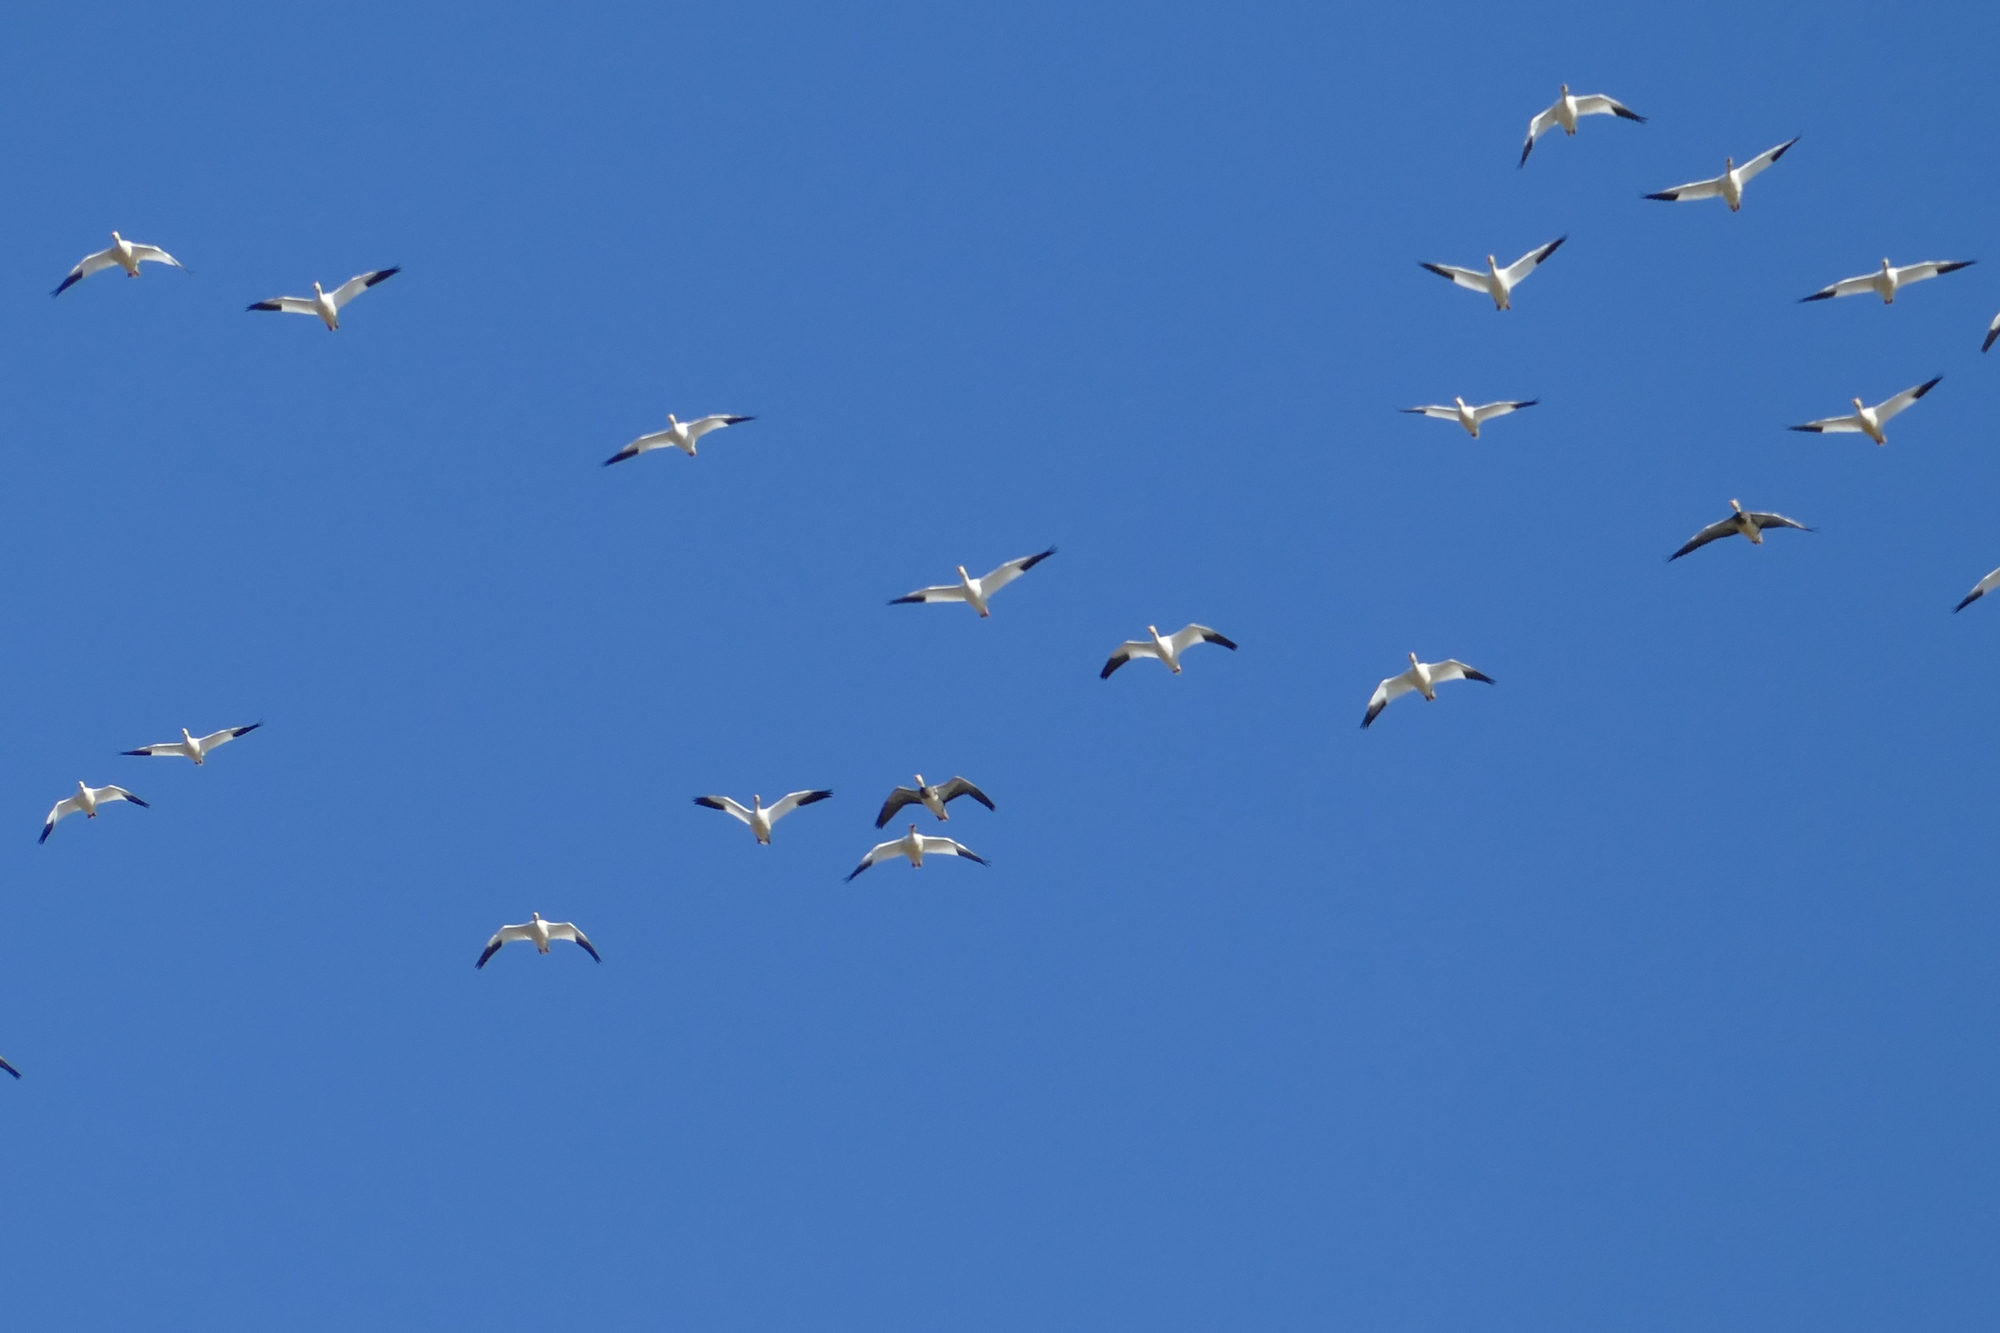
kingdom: Animalia
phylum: Chordata
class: Aves
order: Anseriformes
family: Anatidae
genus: Anser
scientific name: Anser caerulescens
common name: Snow goose
